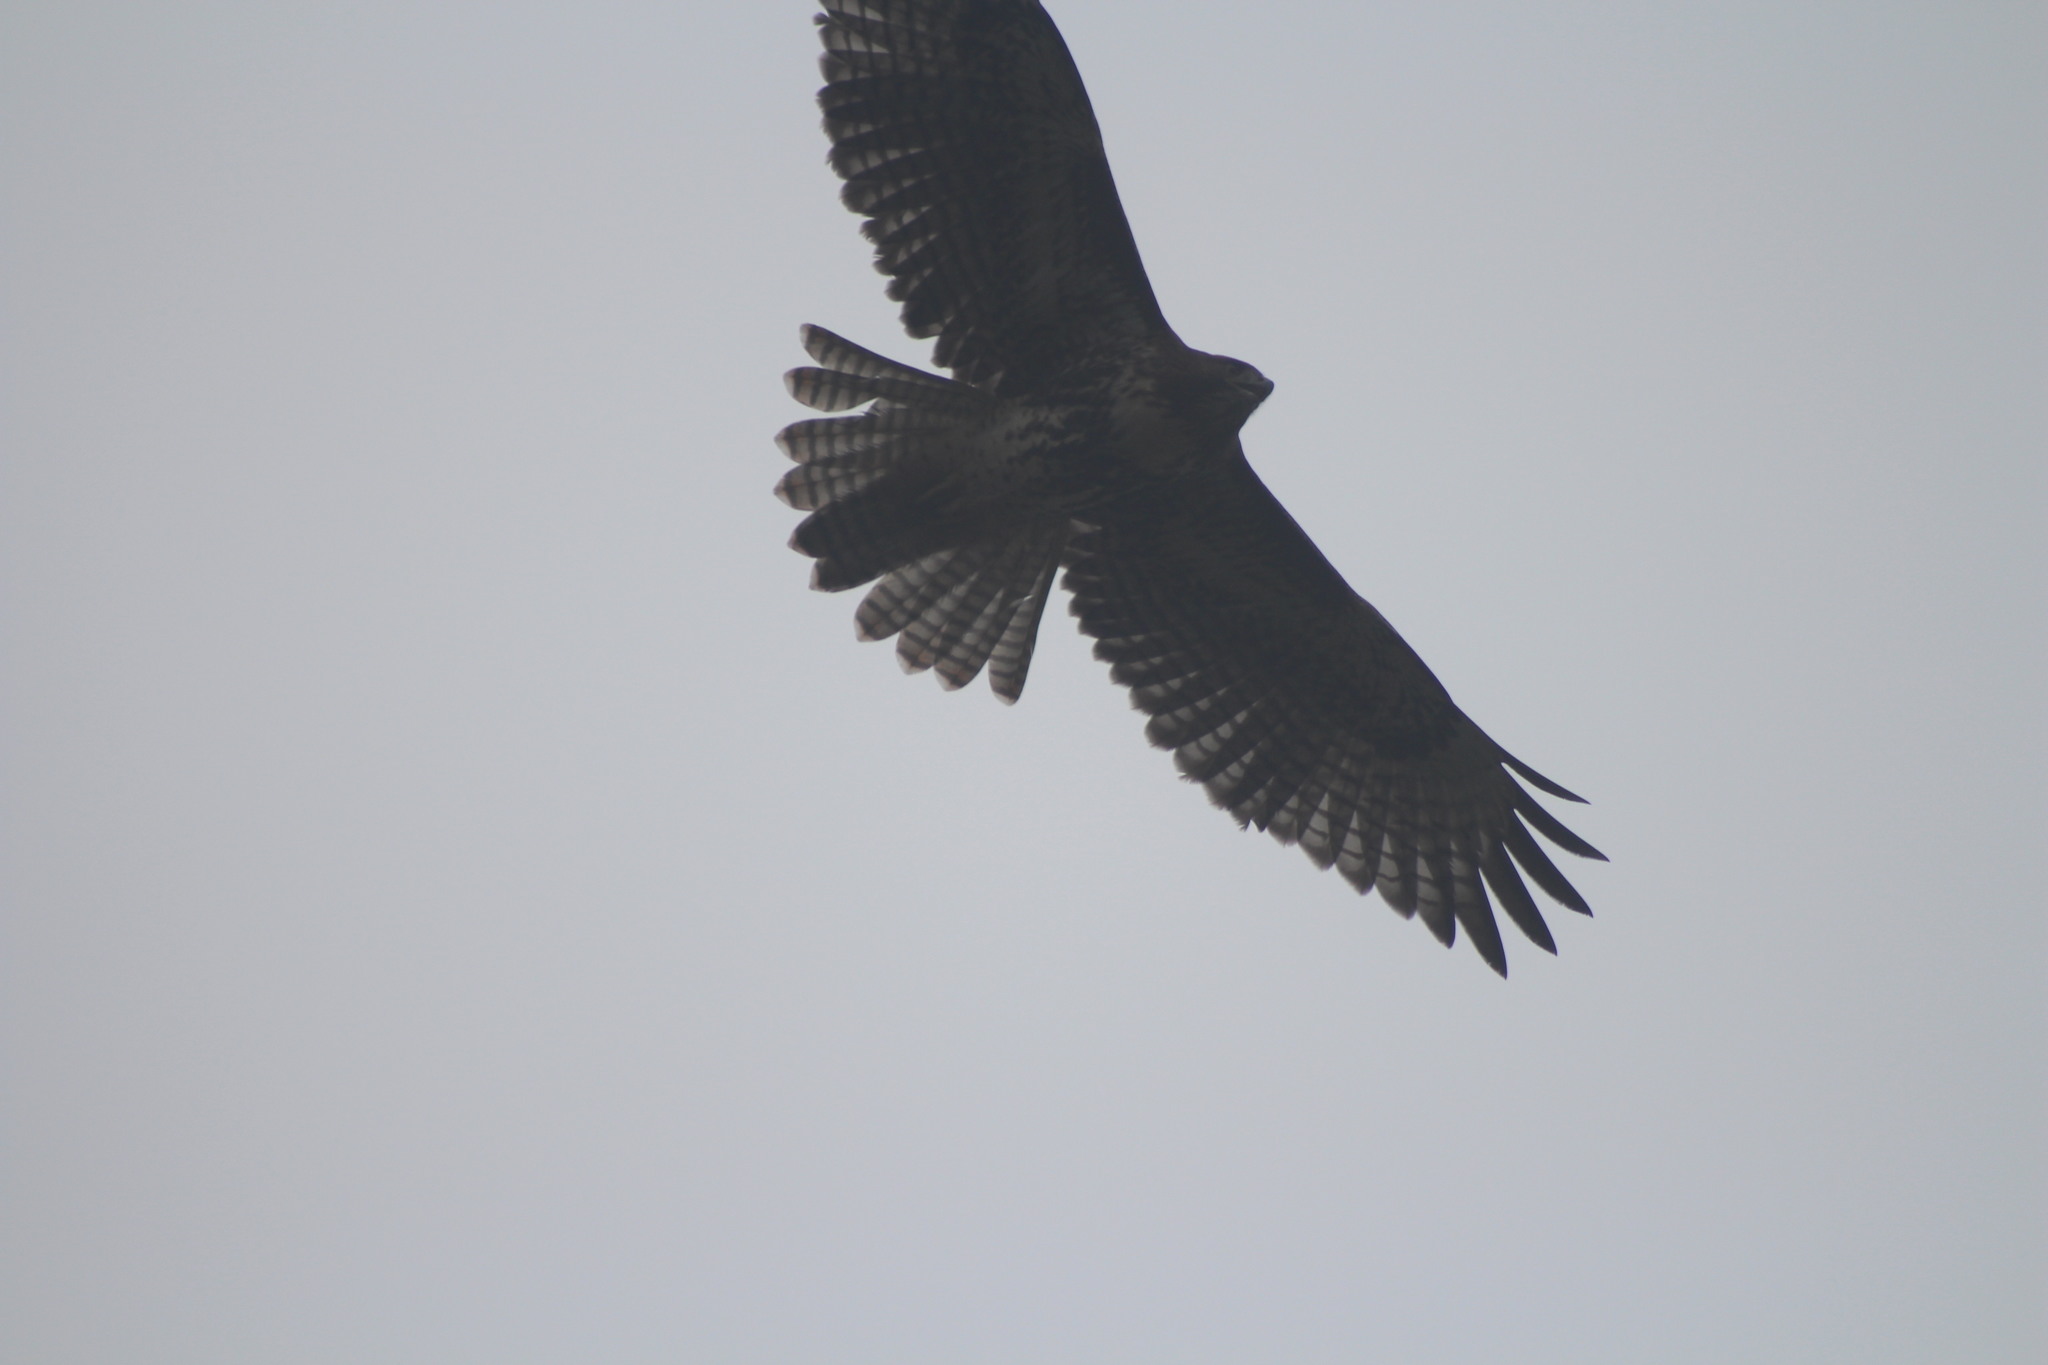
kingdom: Animalia
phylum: Chordata
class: Aves
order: Accipitriformes
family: Accipitridae
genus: Buteo
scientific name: Buteo jamaicensis
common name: Red-tailed hawk
